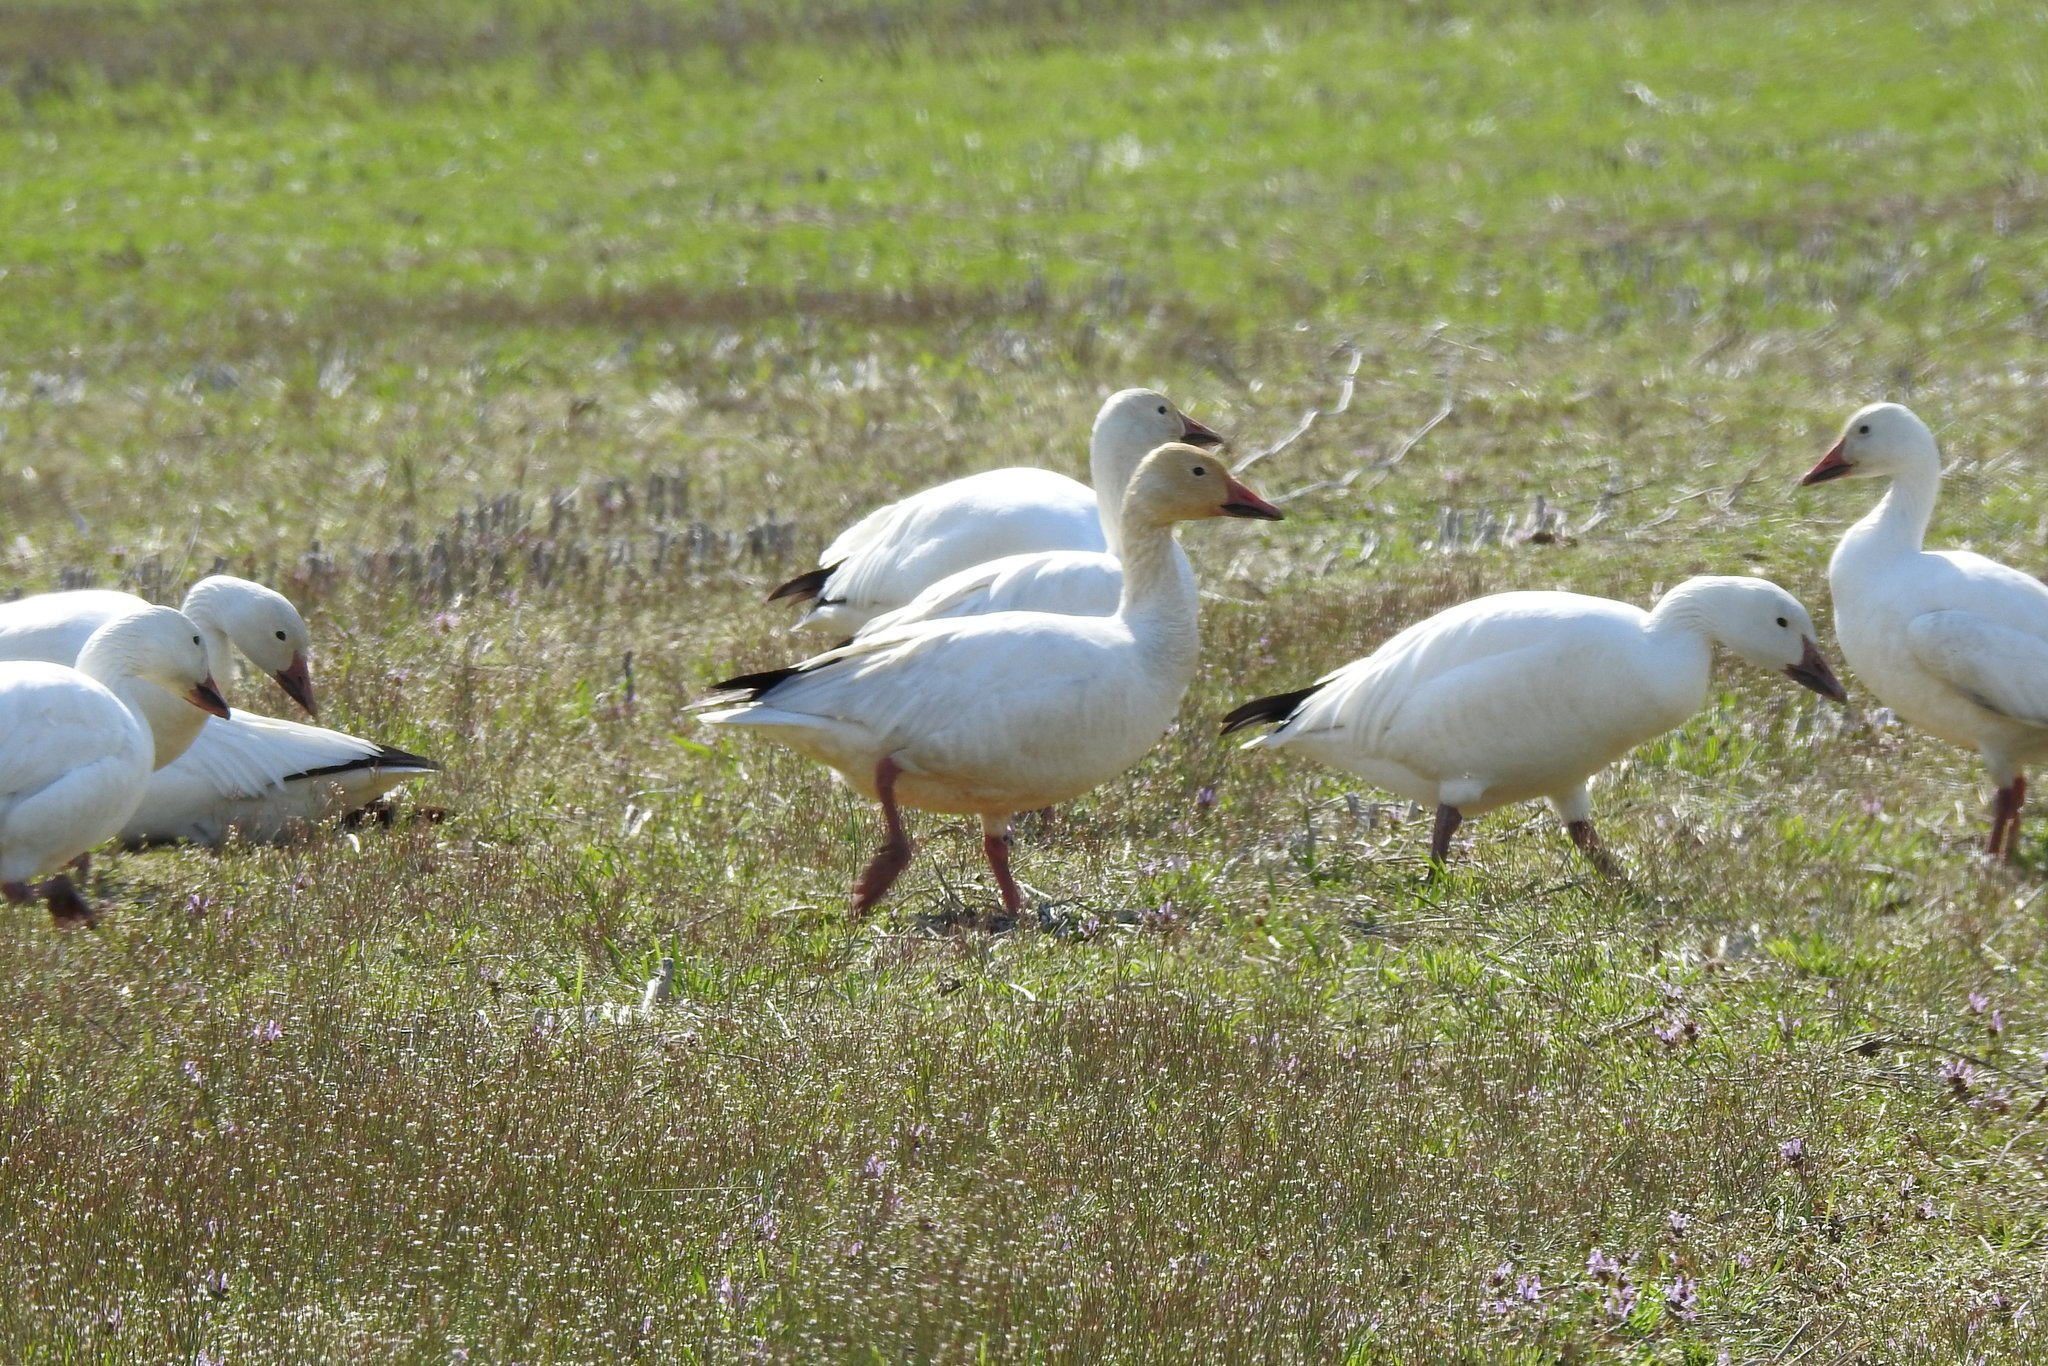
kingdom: Animalia
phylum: Chordata
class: Aves
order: Anseriformes
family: Anatidae
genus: Anser
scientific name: Anser caerulescens
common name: Snow goose
